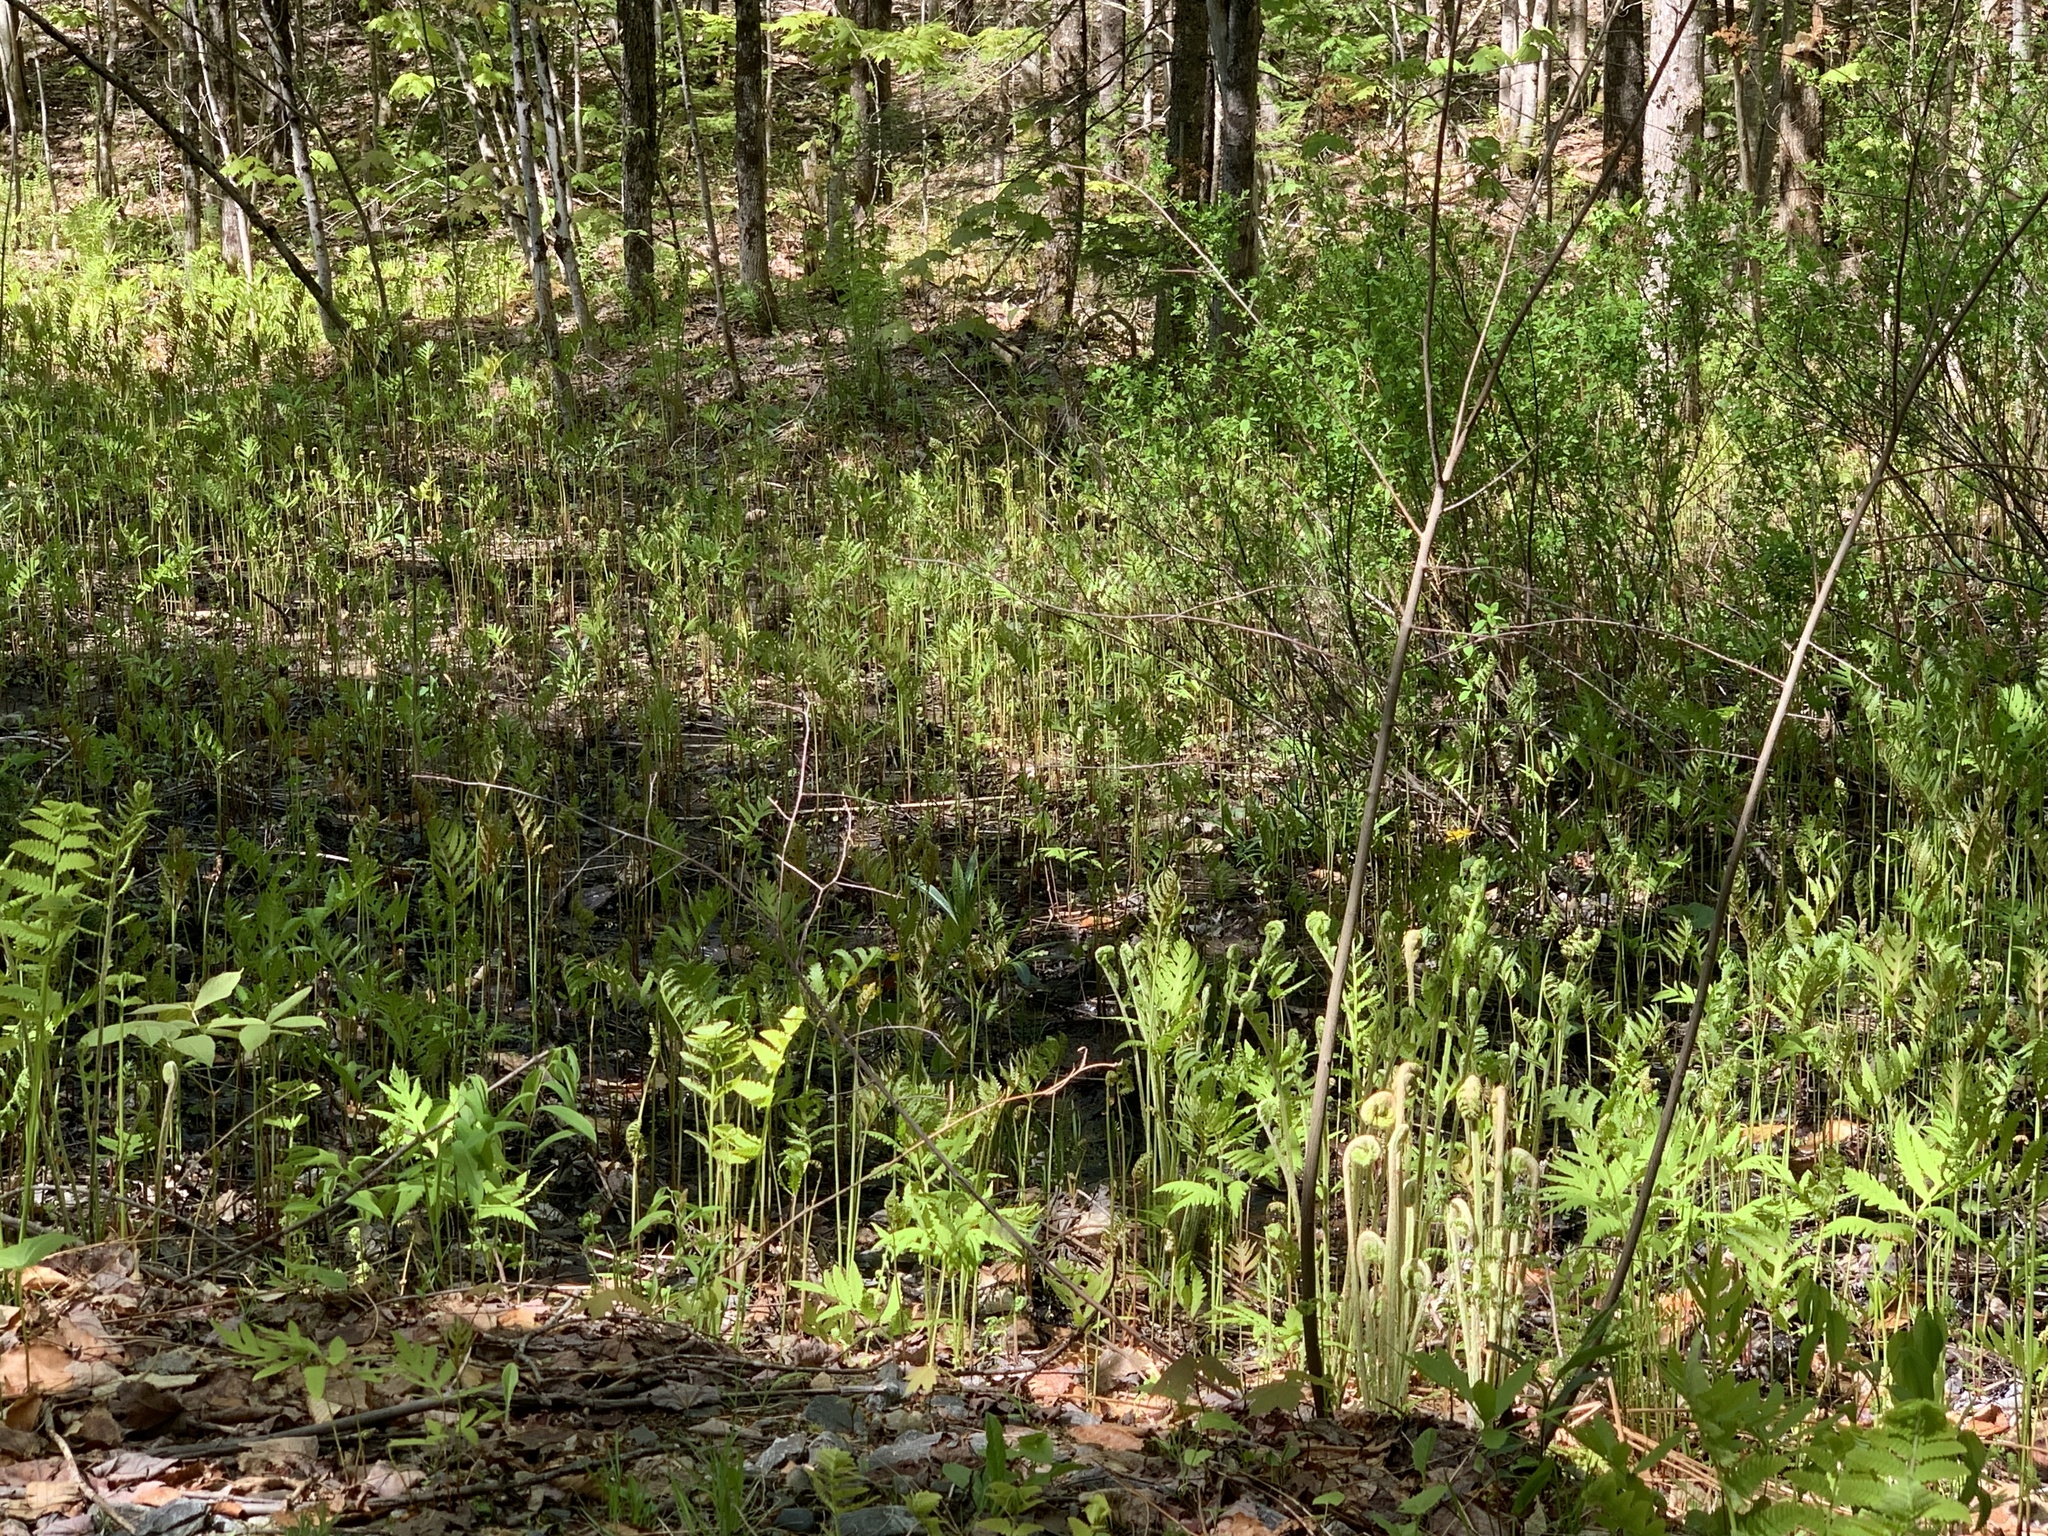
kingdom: Plantae
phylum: Tracheophyta
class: Polypodiopsida
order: Polypodiales
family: Onocleaceae
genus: Onoclea
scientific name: Onoclea sensibilis
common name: Sensitive fern
